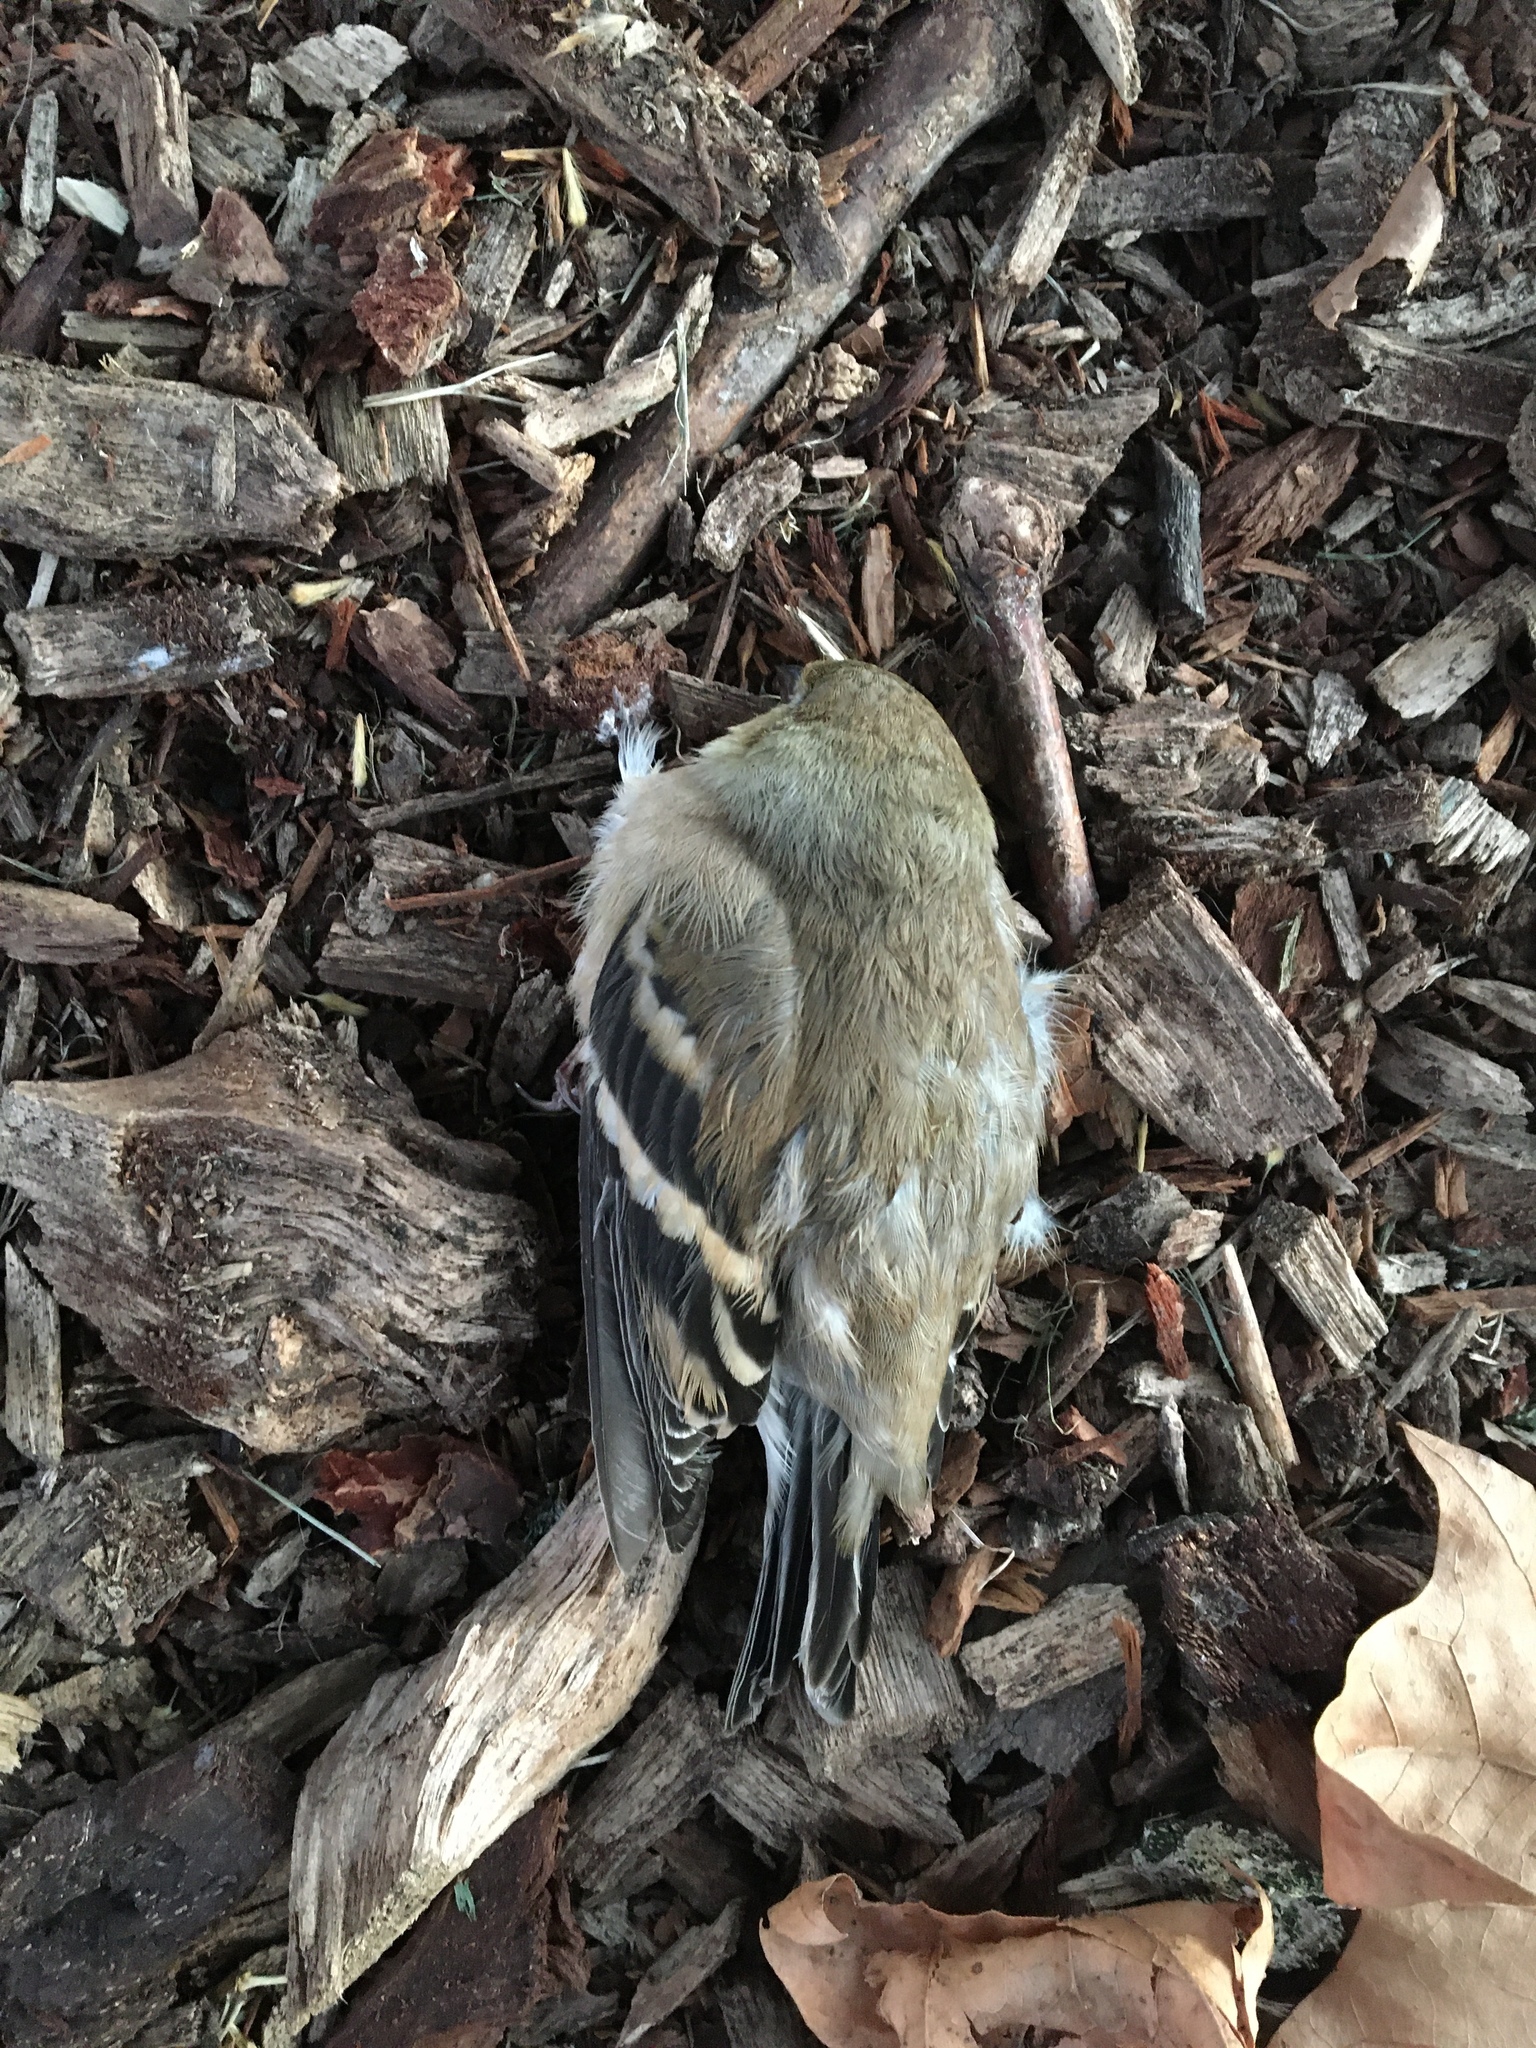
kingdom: Animalia
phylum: Chordata
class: Aves
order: Passeriformes
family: Fringillidae
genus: Spinus
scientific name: Spinus tristis
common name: American goldfinch
